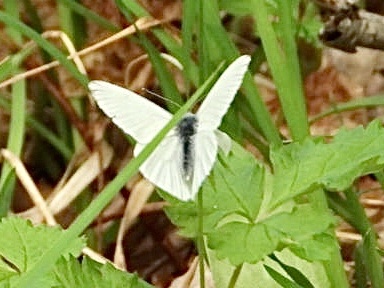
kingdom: Animalia
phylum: Arthropoda
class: Insecta
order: Lepidoptera
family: Pieridae
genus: Pieris
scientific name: Pieris oleracea
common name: Mustard white
